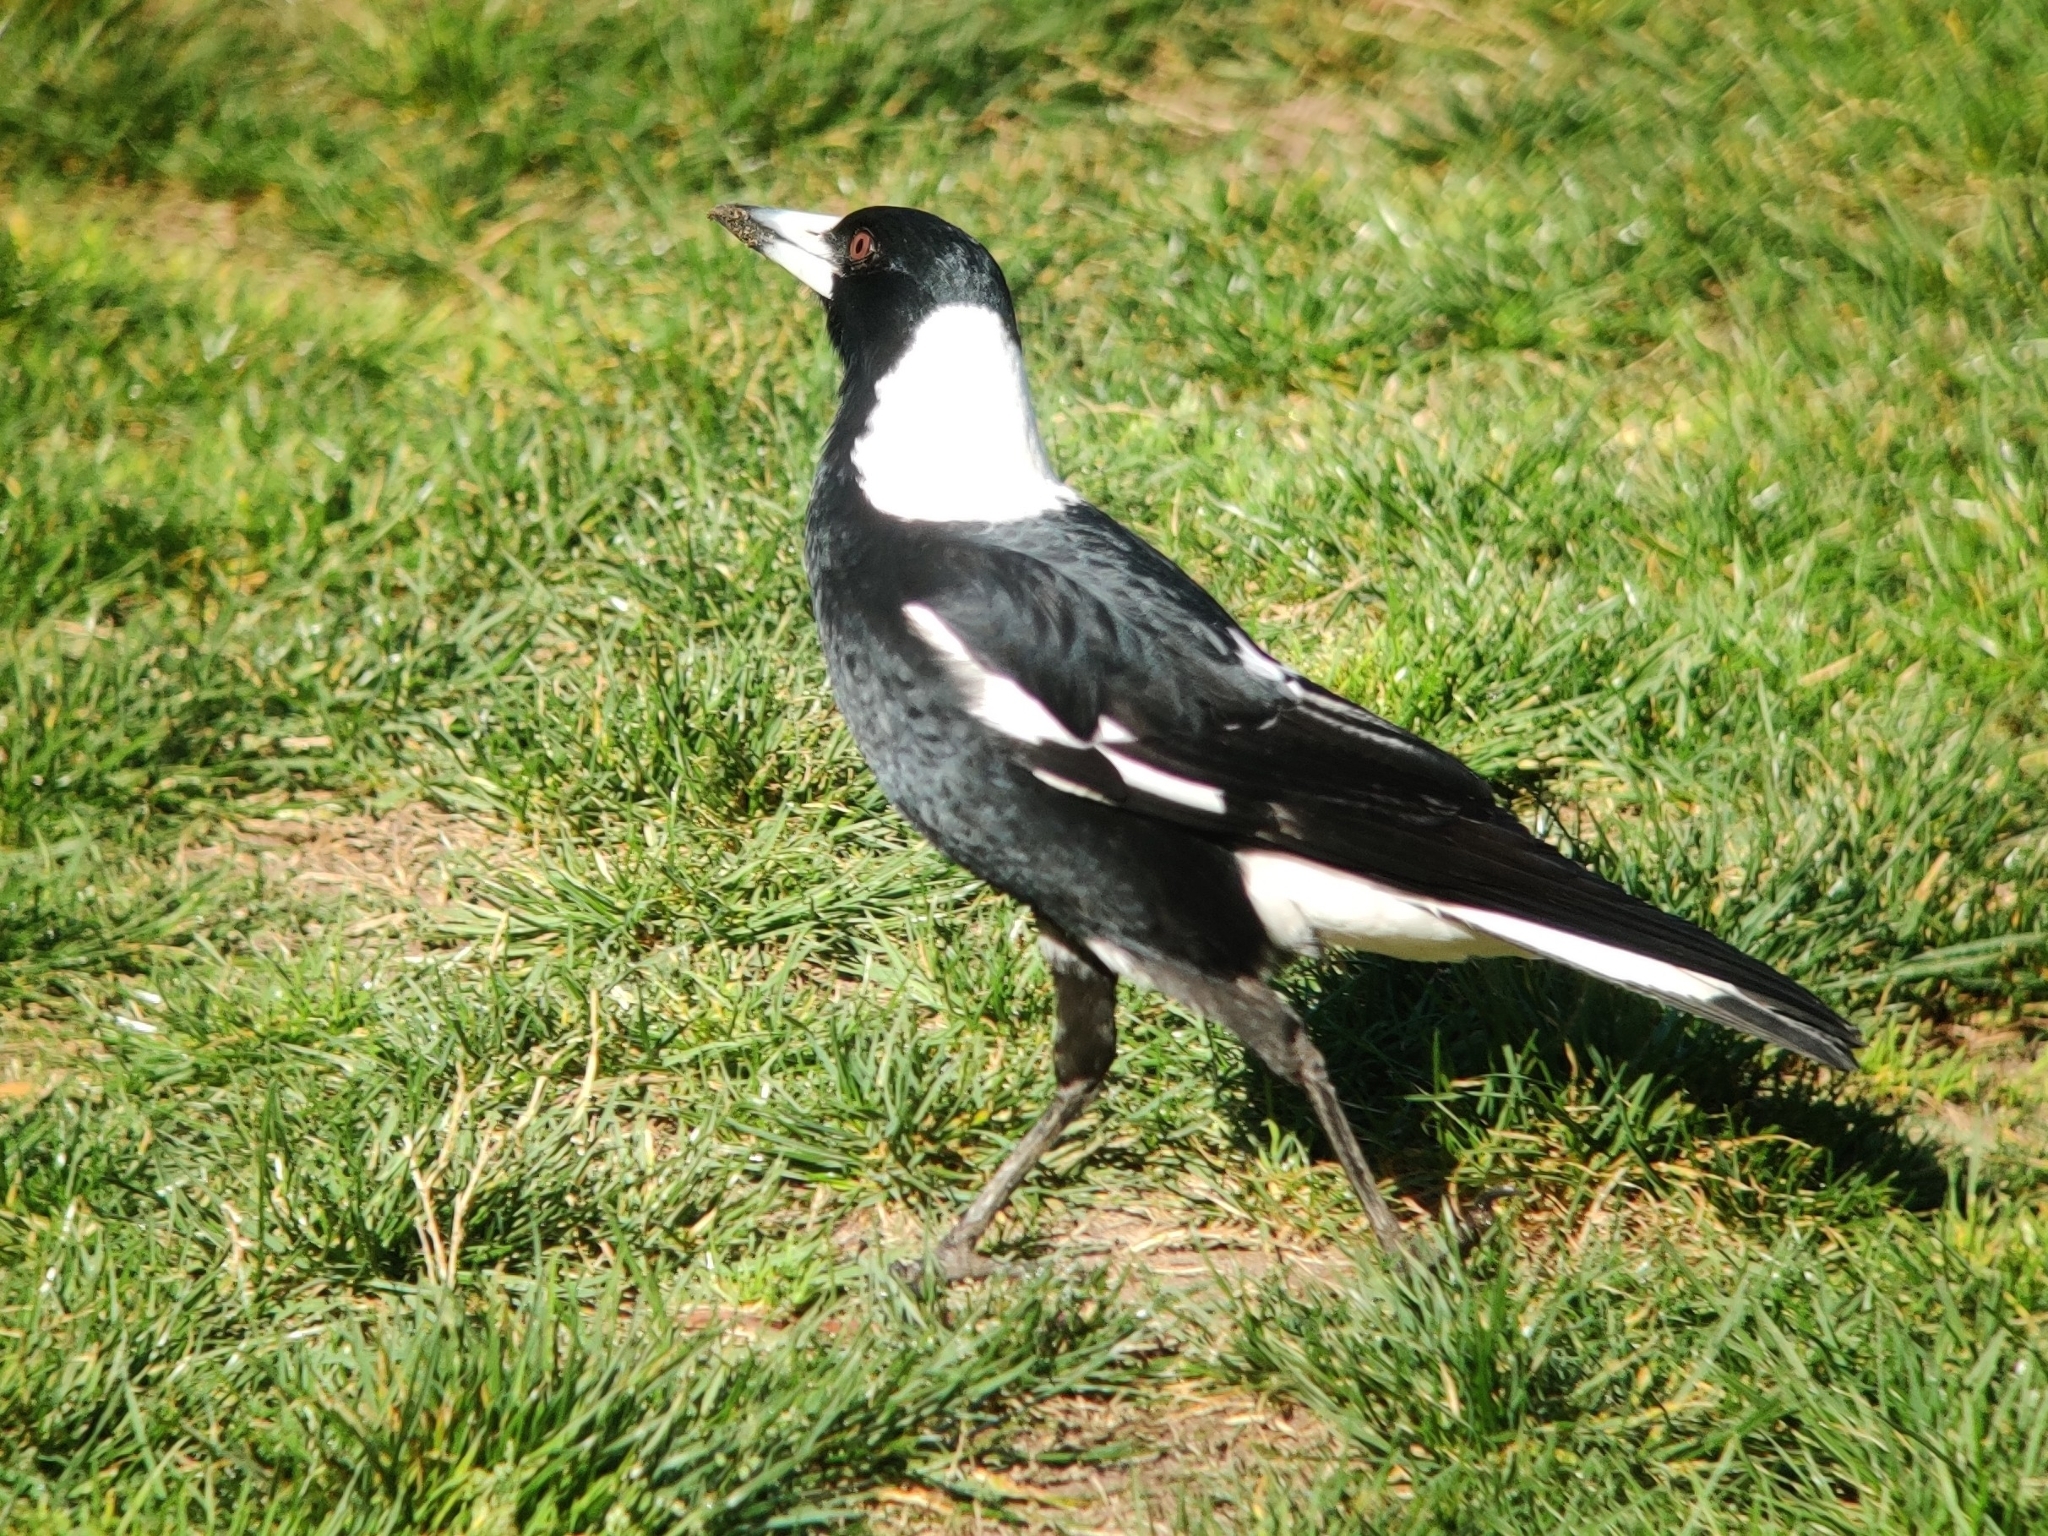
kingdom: Animalia
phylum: Chordata
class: Aves
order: Passeriformes
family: Cracticidae
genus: Gymnorhina
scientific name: Gymnorhina tibicen
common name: Australian magpie
